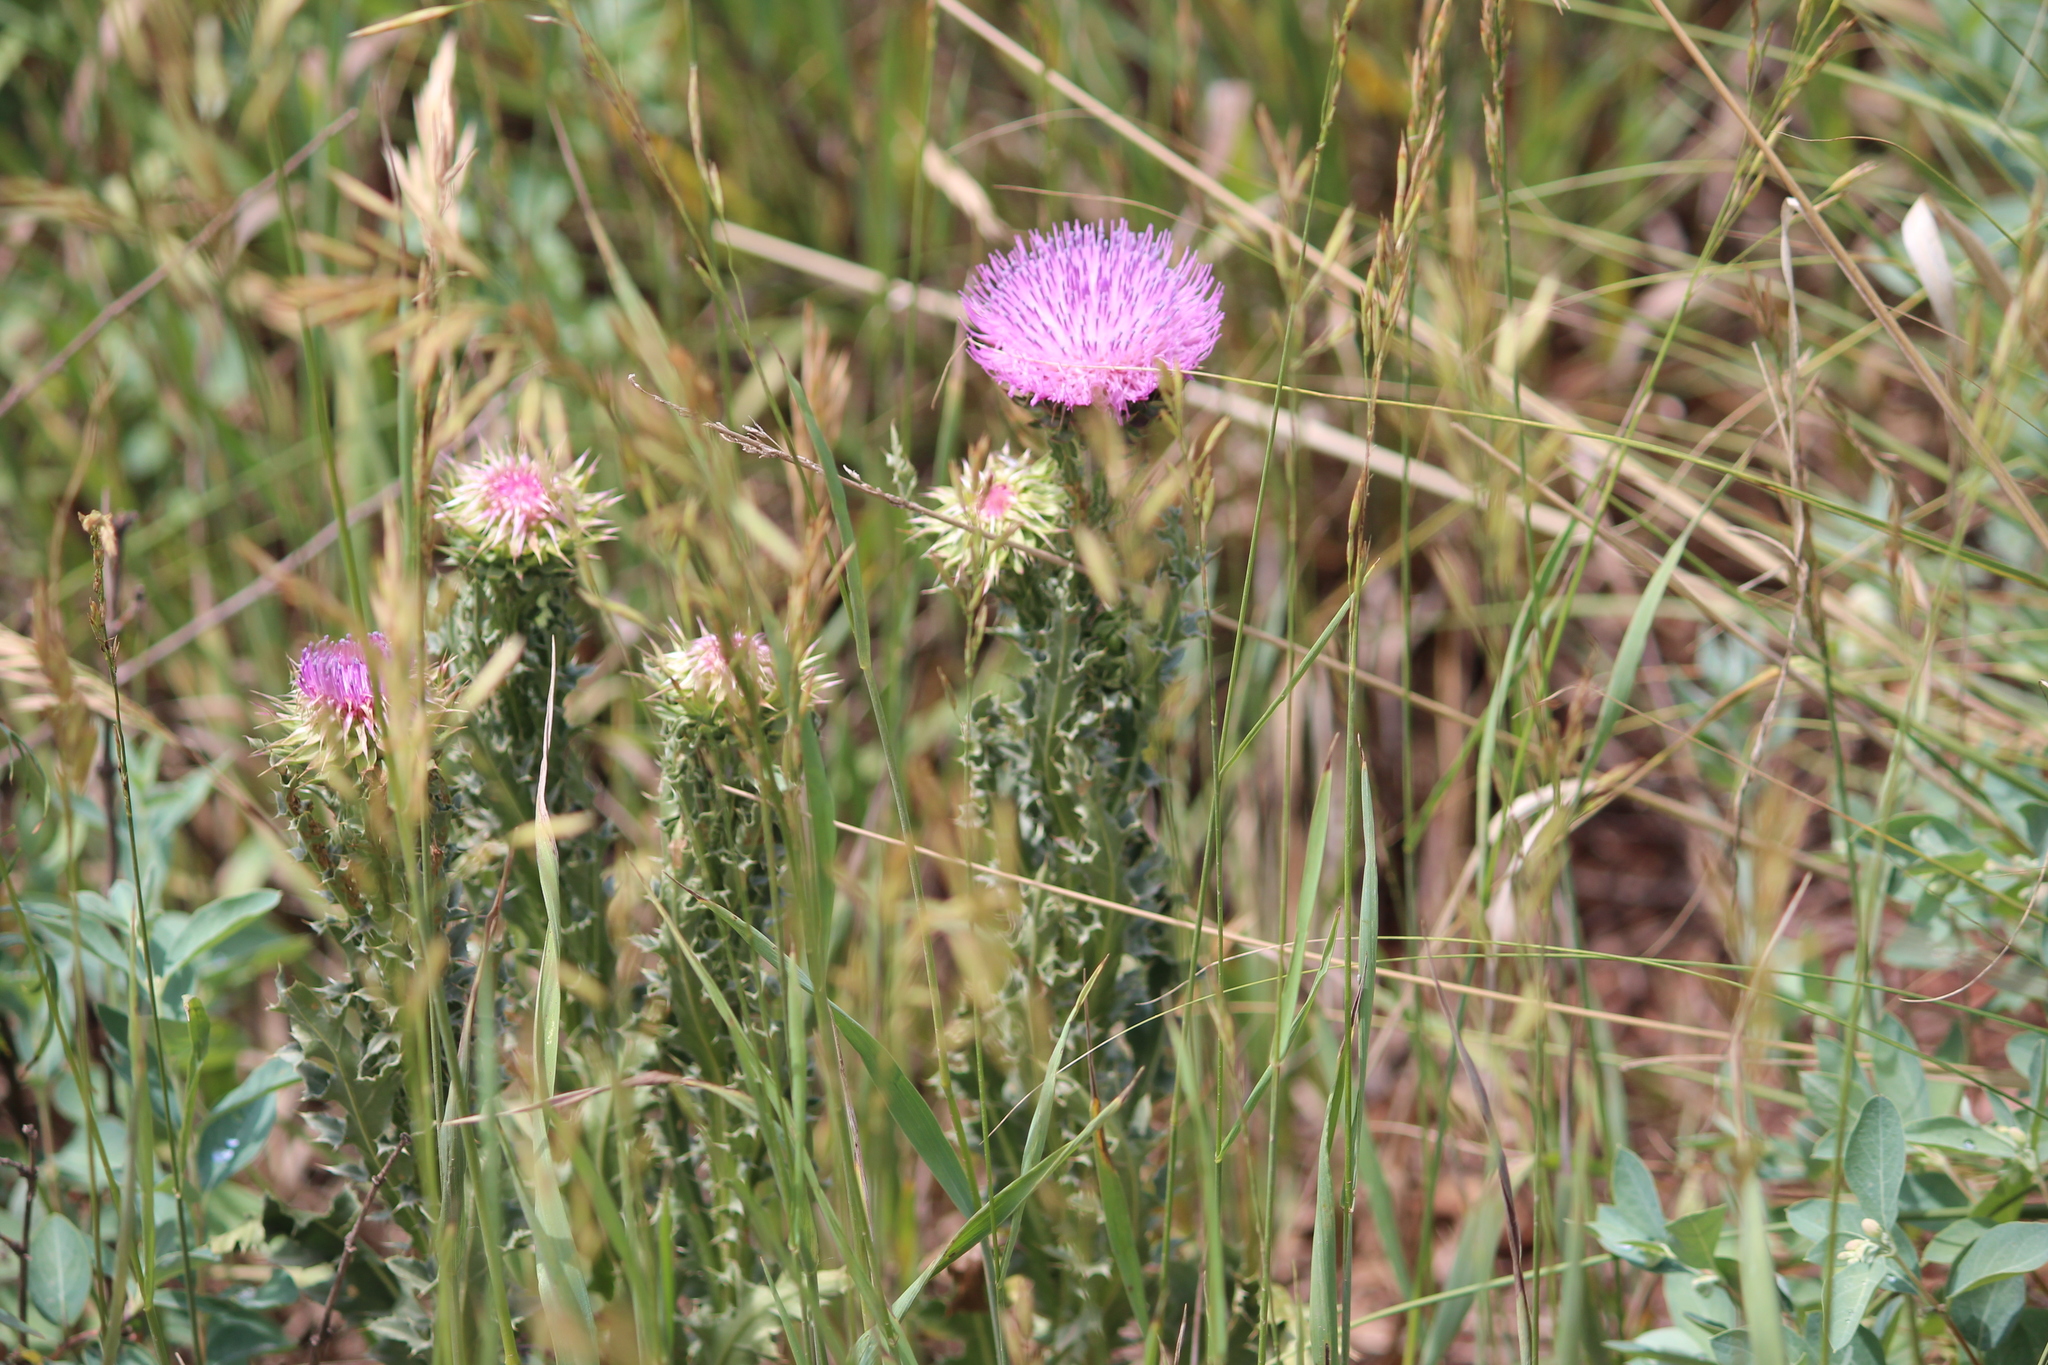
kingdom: Plantae
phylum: Tracheophyta
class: Magnoliopsida
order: Asterales
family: Asteraceae
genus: Carduus
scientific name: Carduus nutans
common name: Musk thistle
